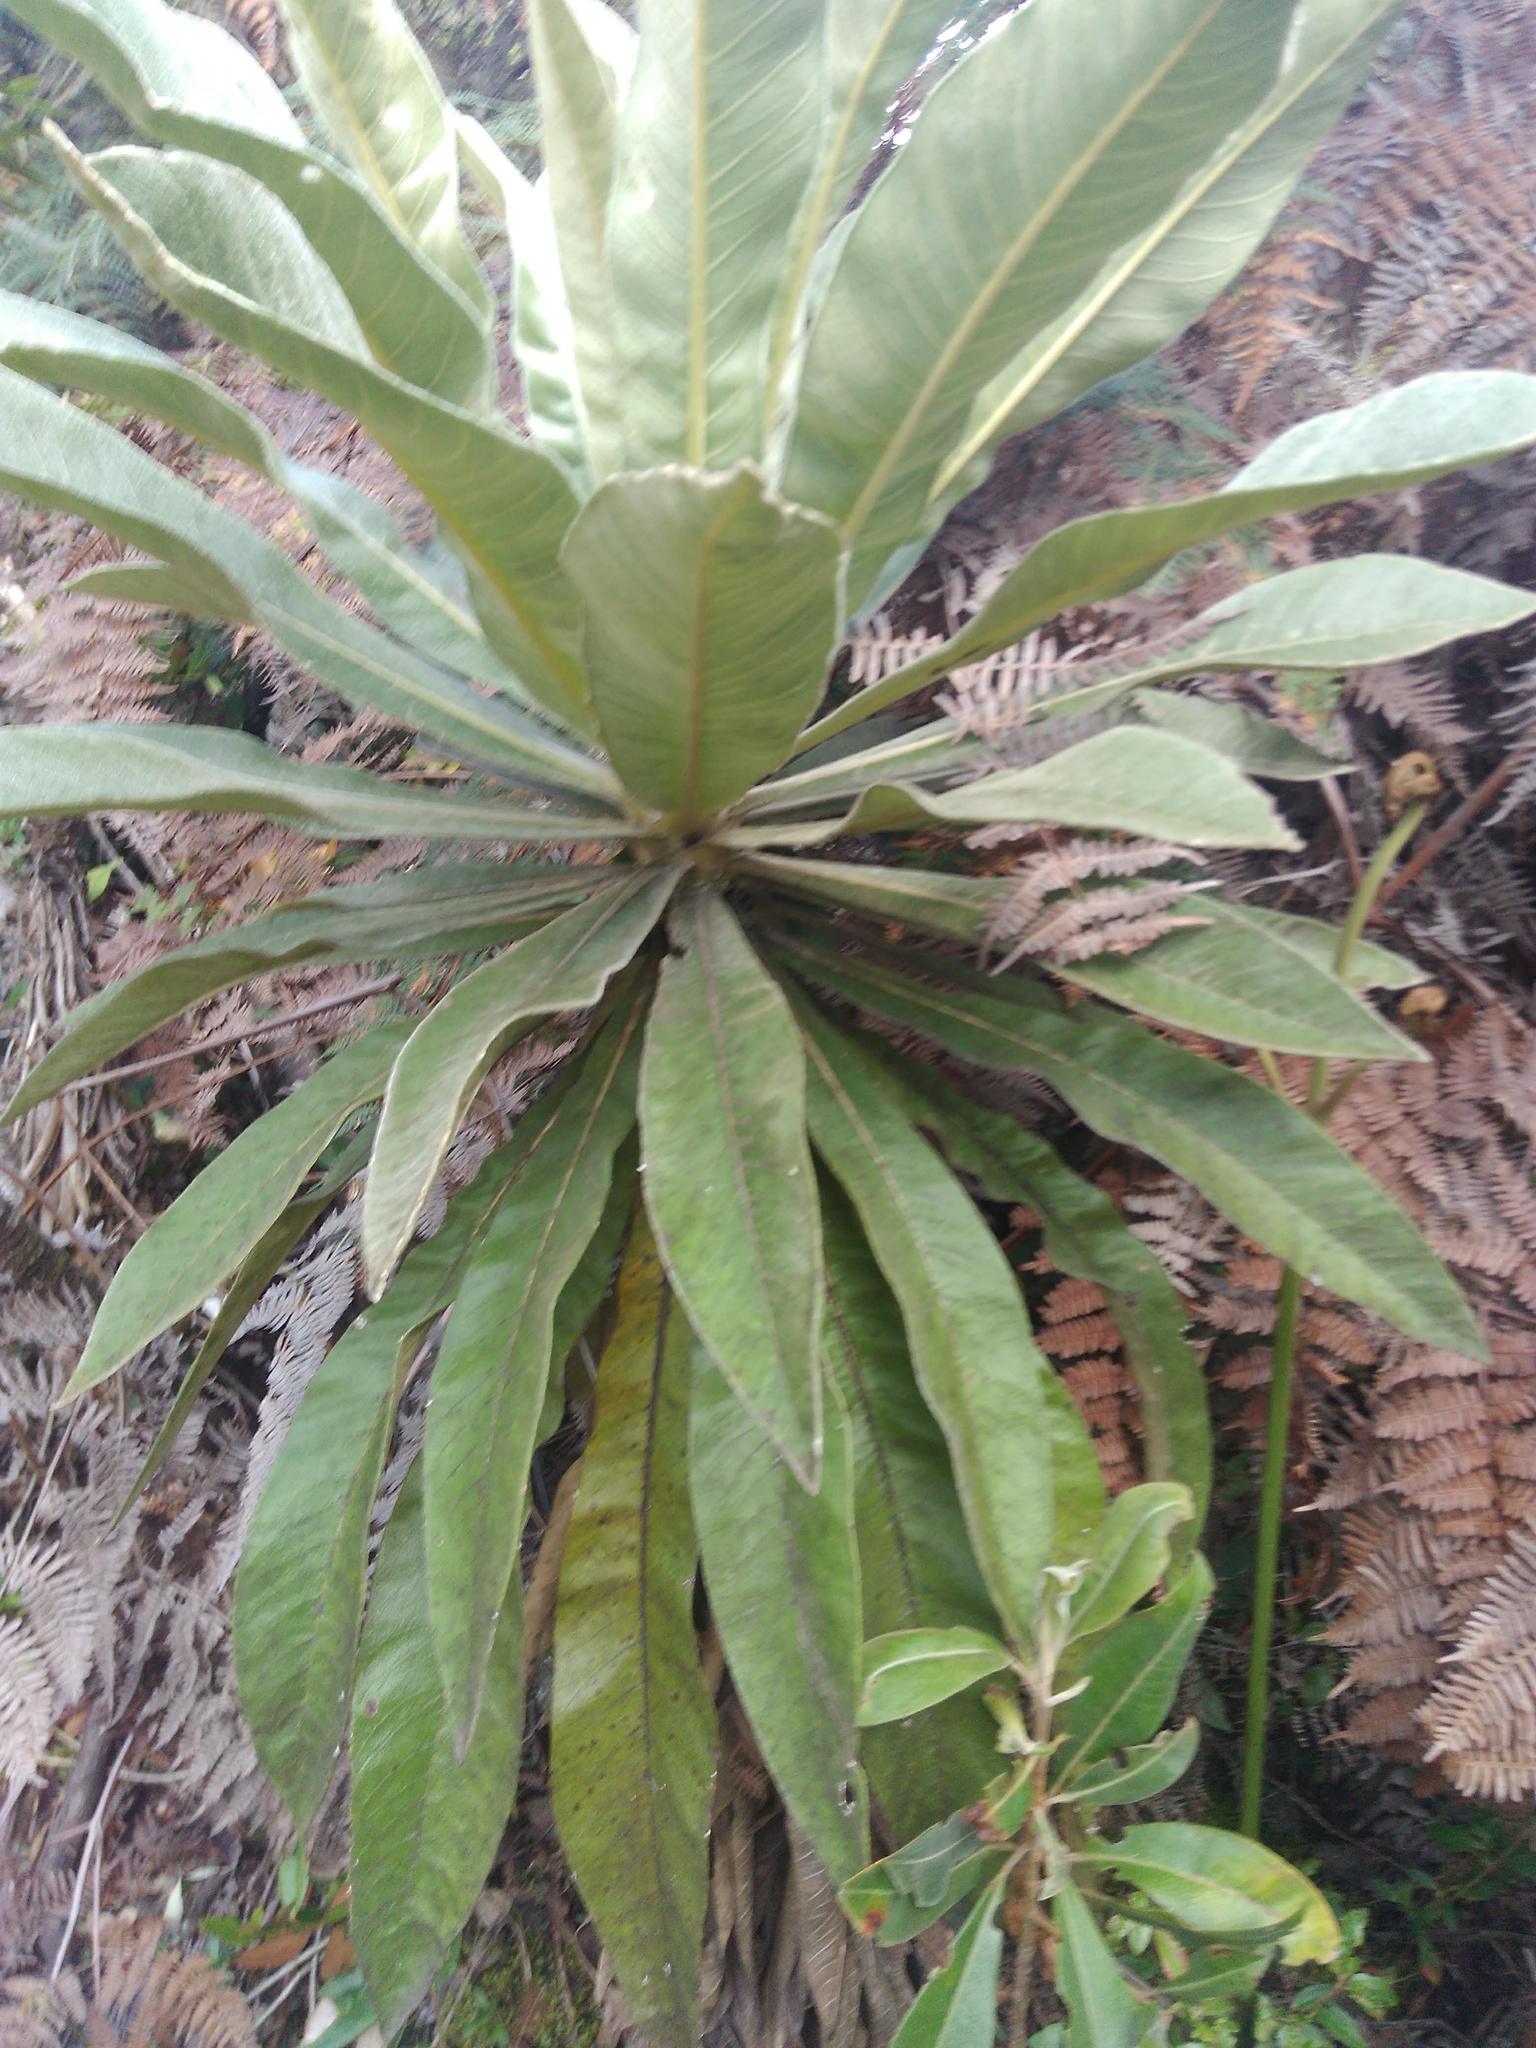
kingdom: Plantae
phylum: Tracheophyta
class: Magnoliopsida
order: Asterales
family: Asteraceae
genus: Espeletia
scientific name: Espeletia pleiochasia
